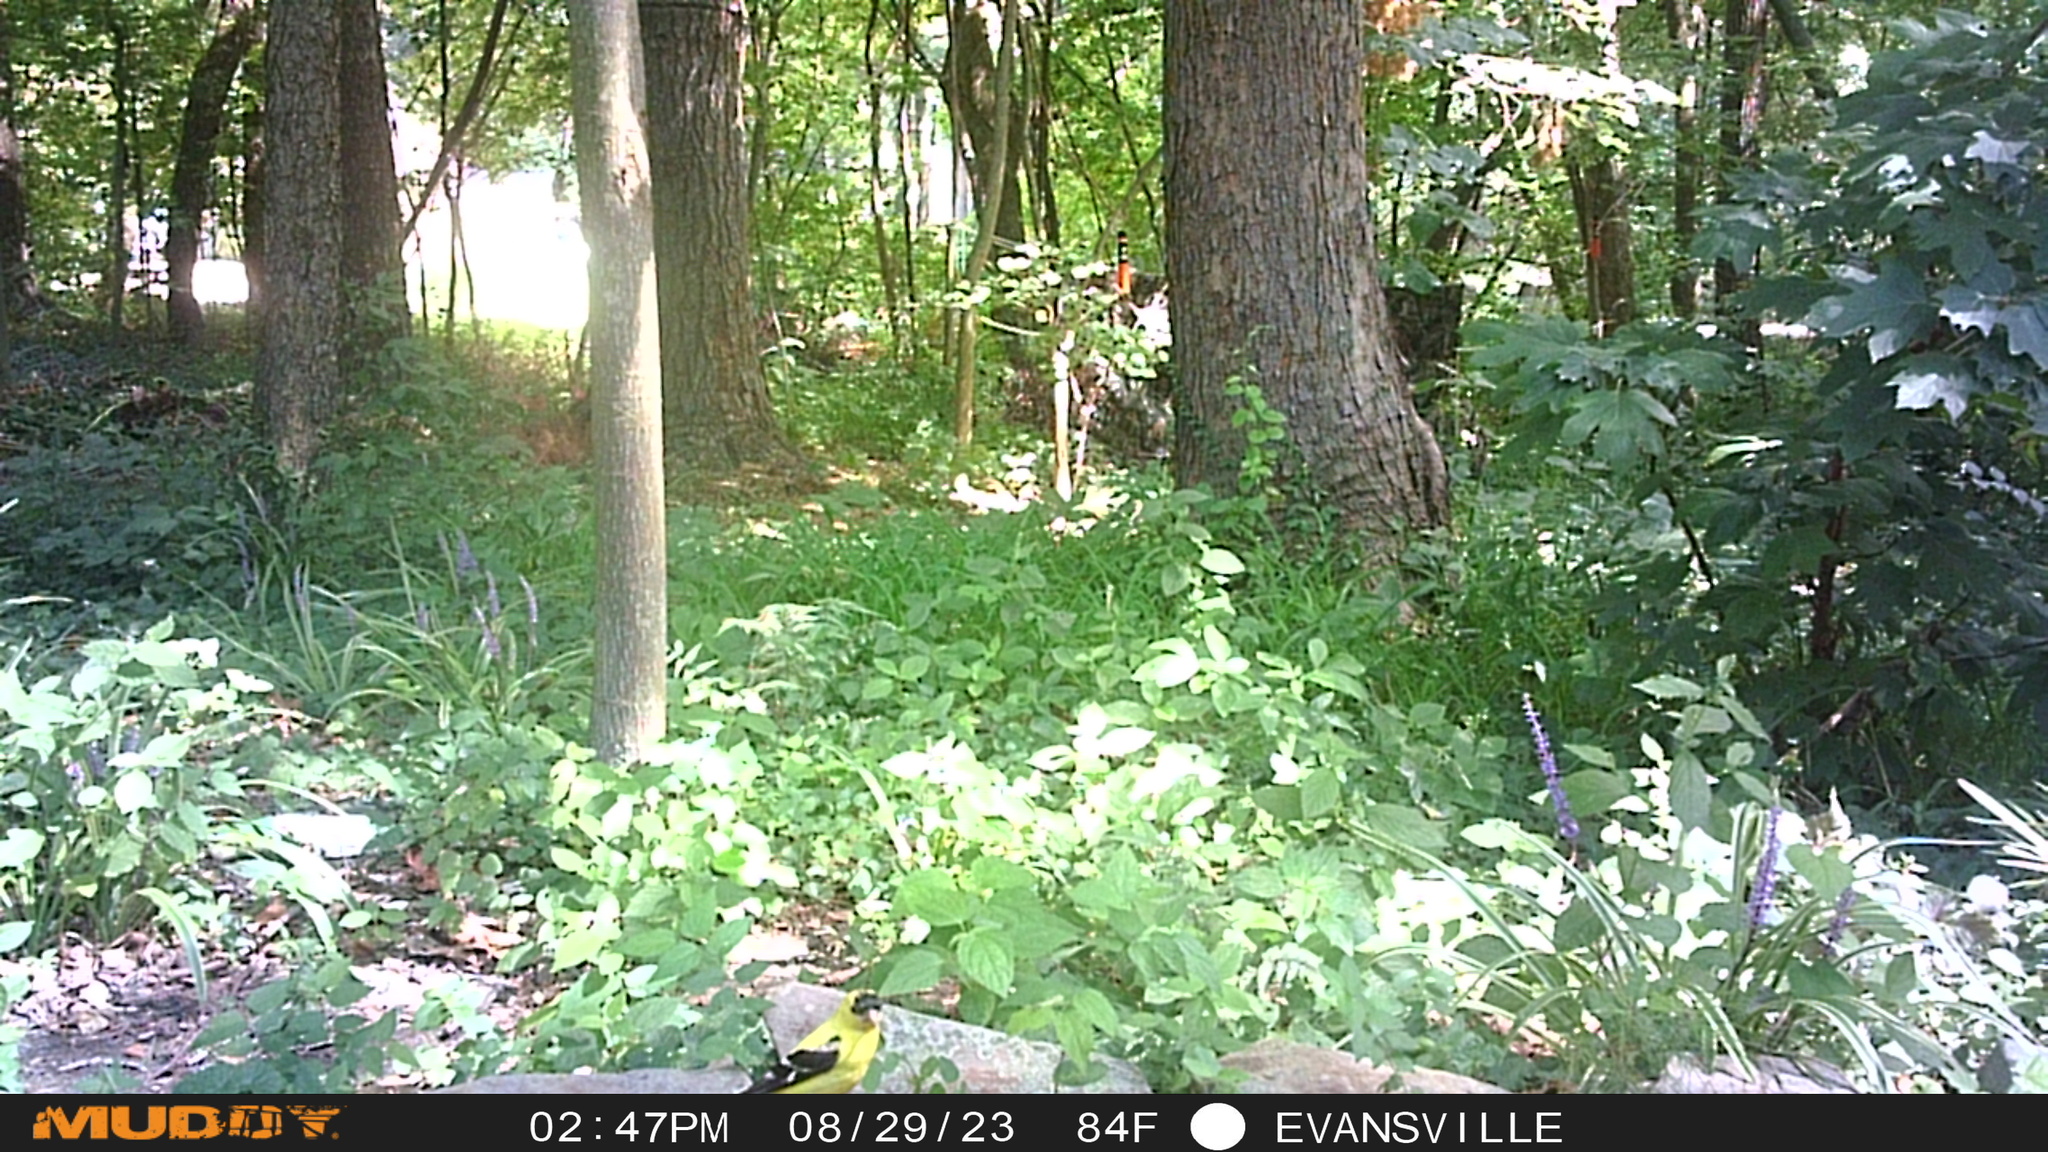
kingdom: Animalia
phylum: Chordata
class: Aves
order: Passeriformes
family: Fringillidae
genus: Spinus
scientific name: Spinus tristis
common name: American goldfinch
